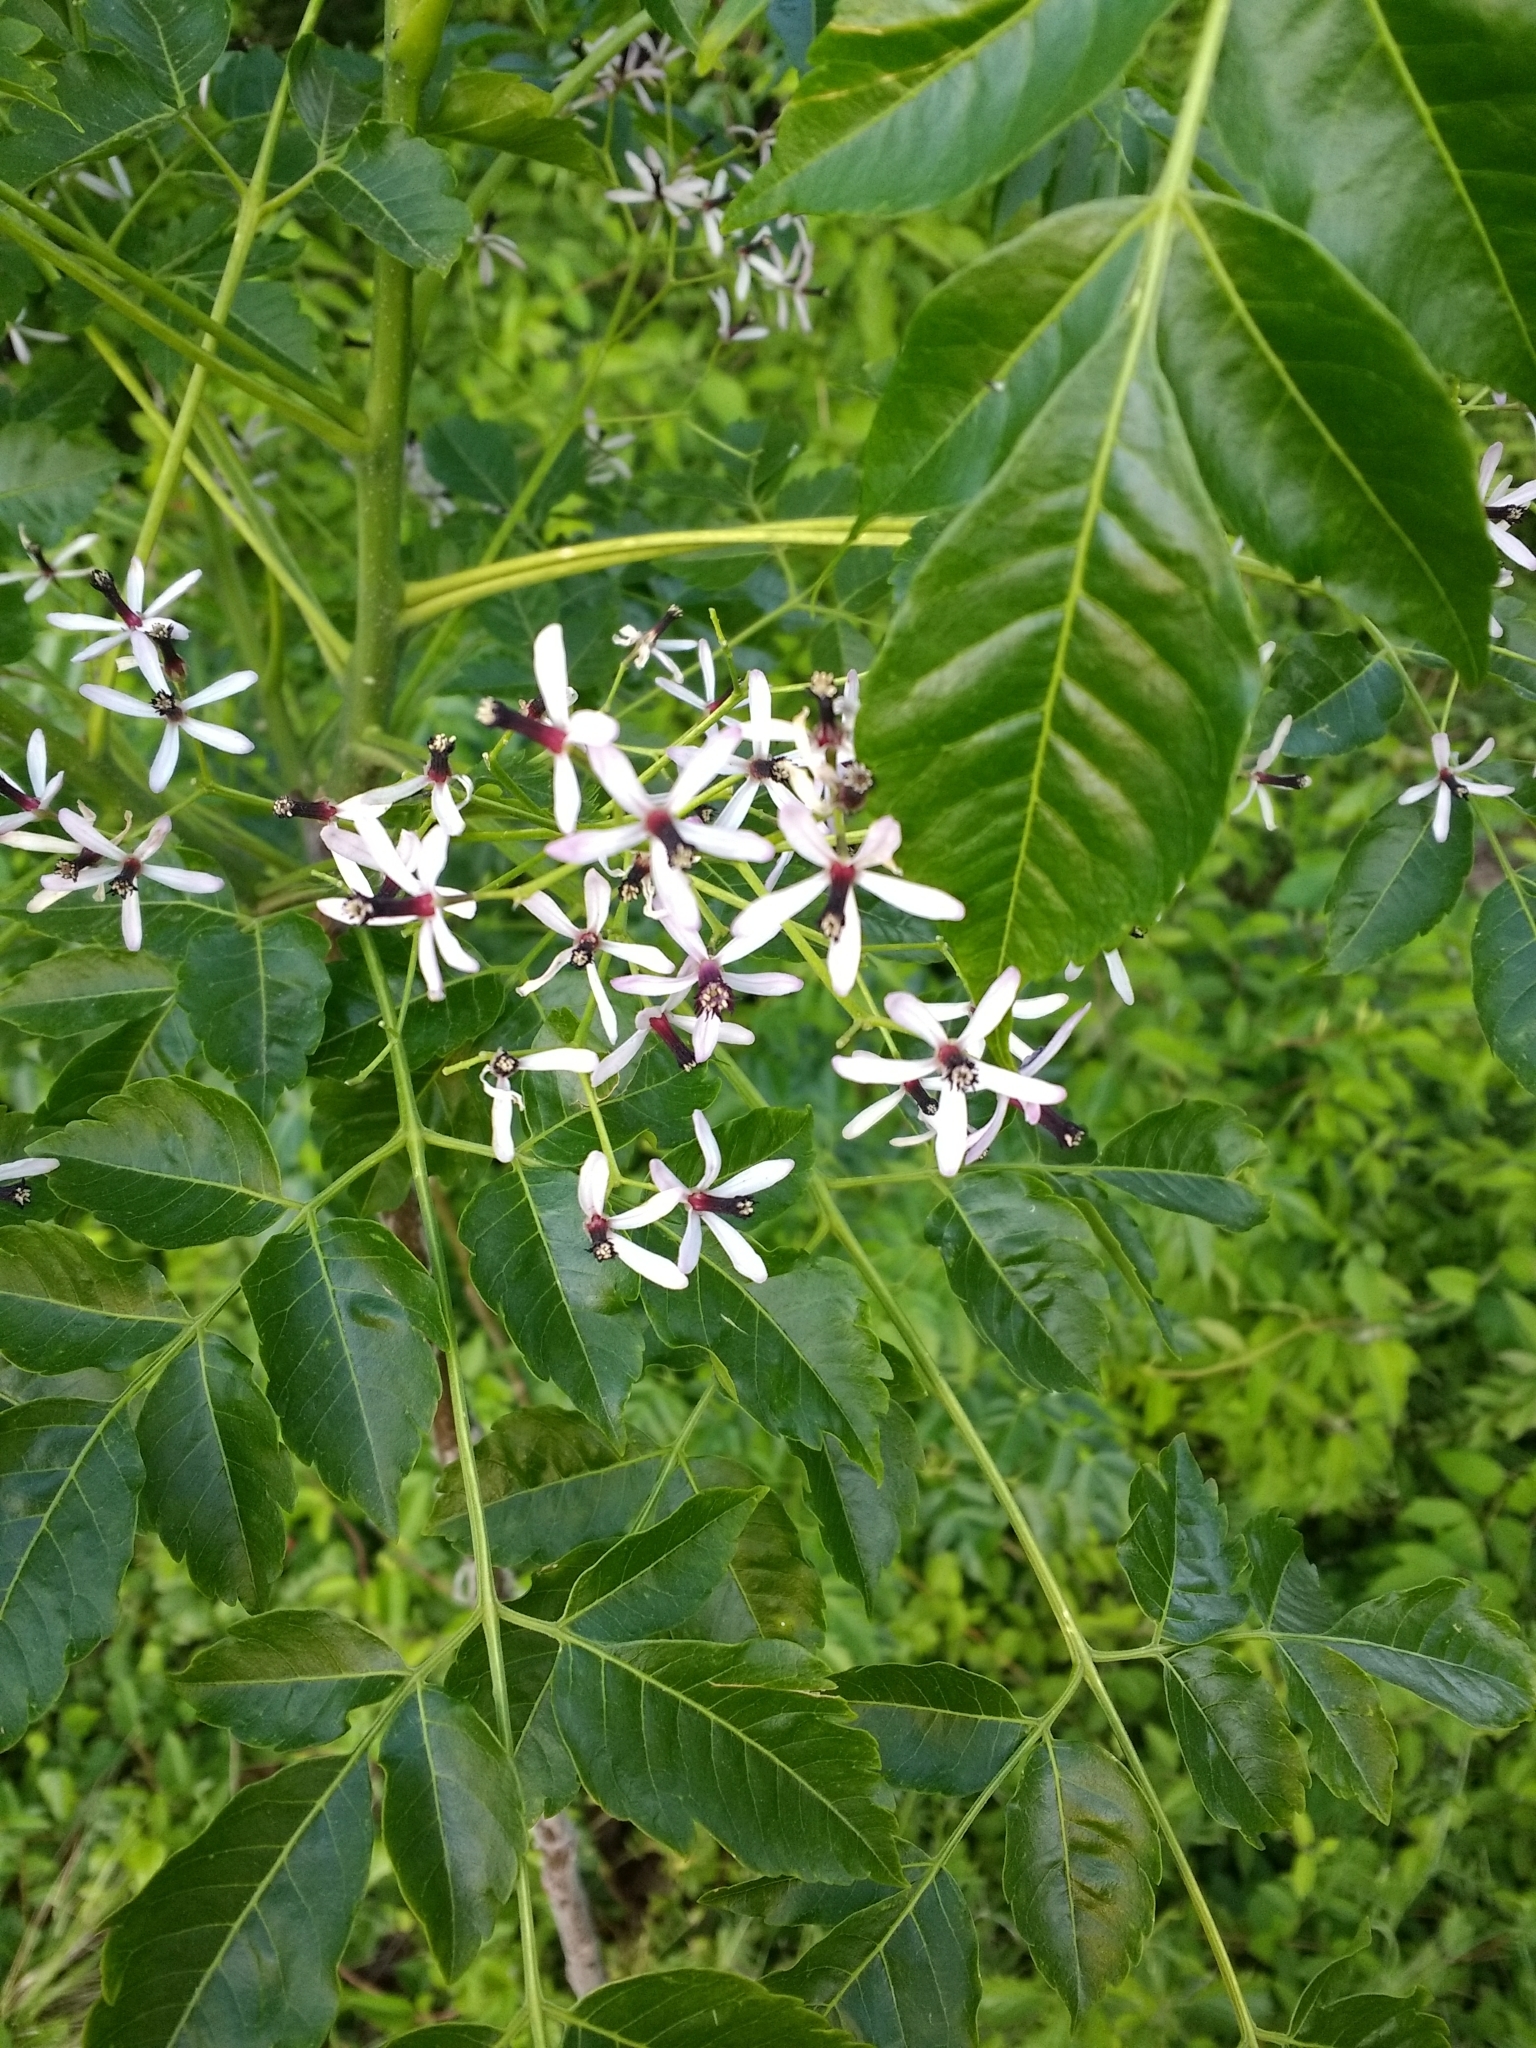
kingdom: Plantae
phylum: Tracheophyta
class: Magnoliopsida
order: Sapindales
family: Meliaceae
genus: Melia
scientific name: Melia azedarach
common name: Chinaberrytree
